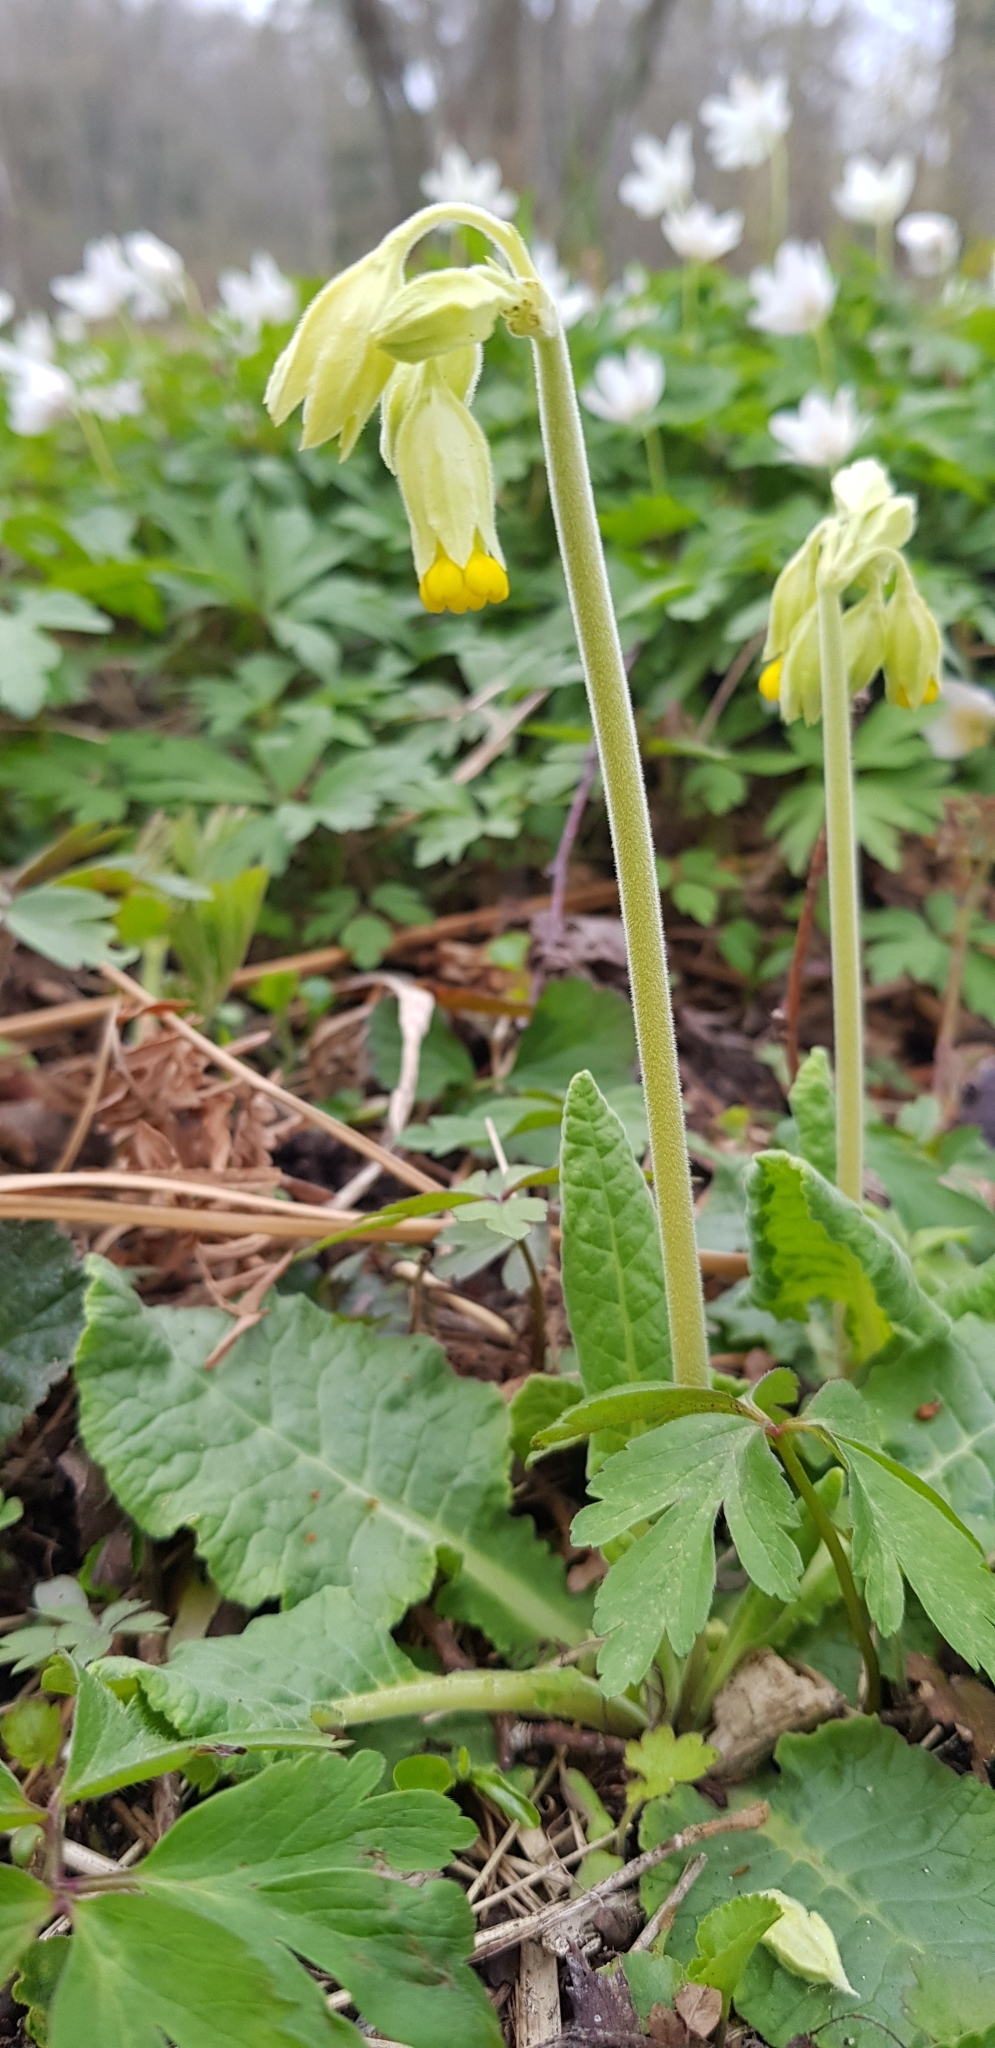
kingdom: Plantae
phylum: Tracheophyta
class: Magnoliopsida
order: Ericales
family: Primulaceae
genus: Primula
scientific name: Primula veris
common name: Cowslip
